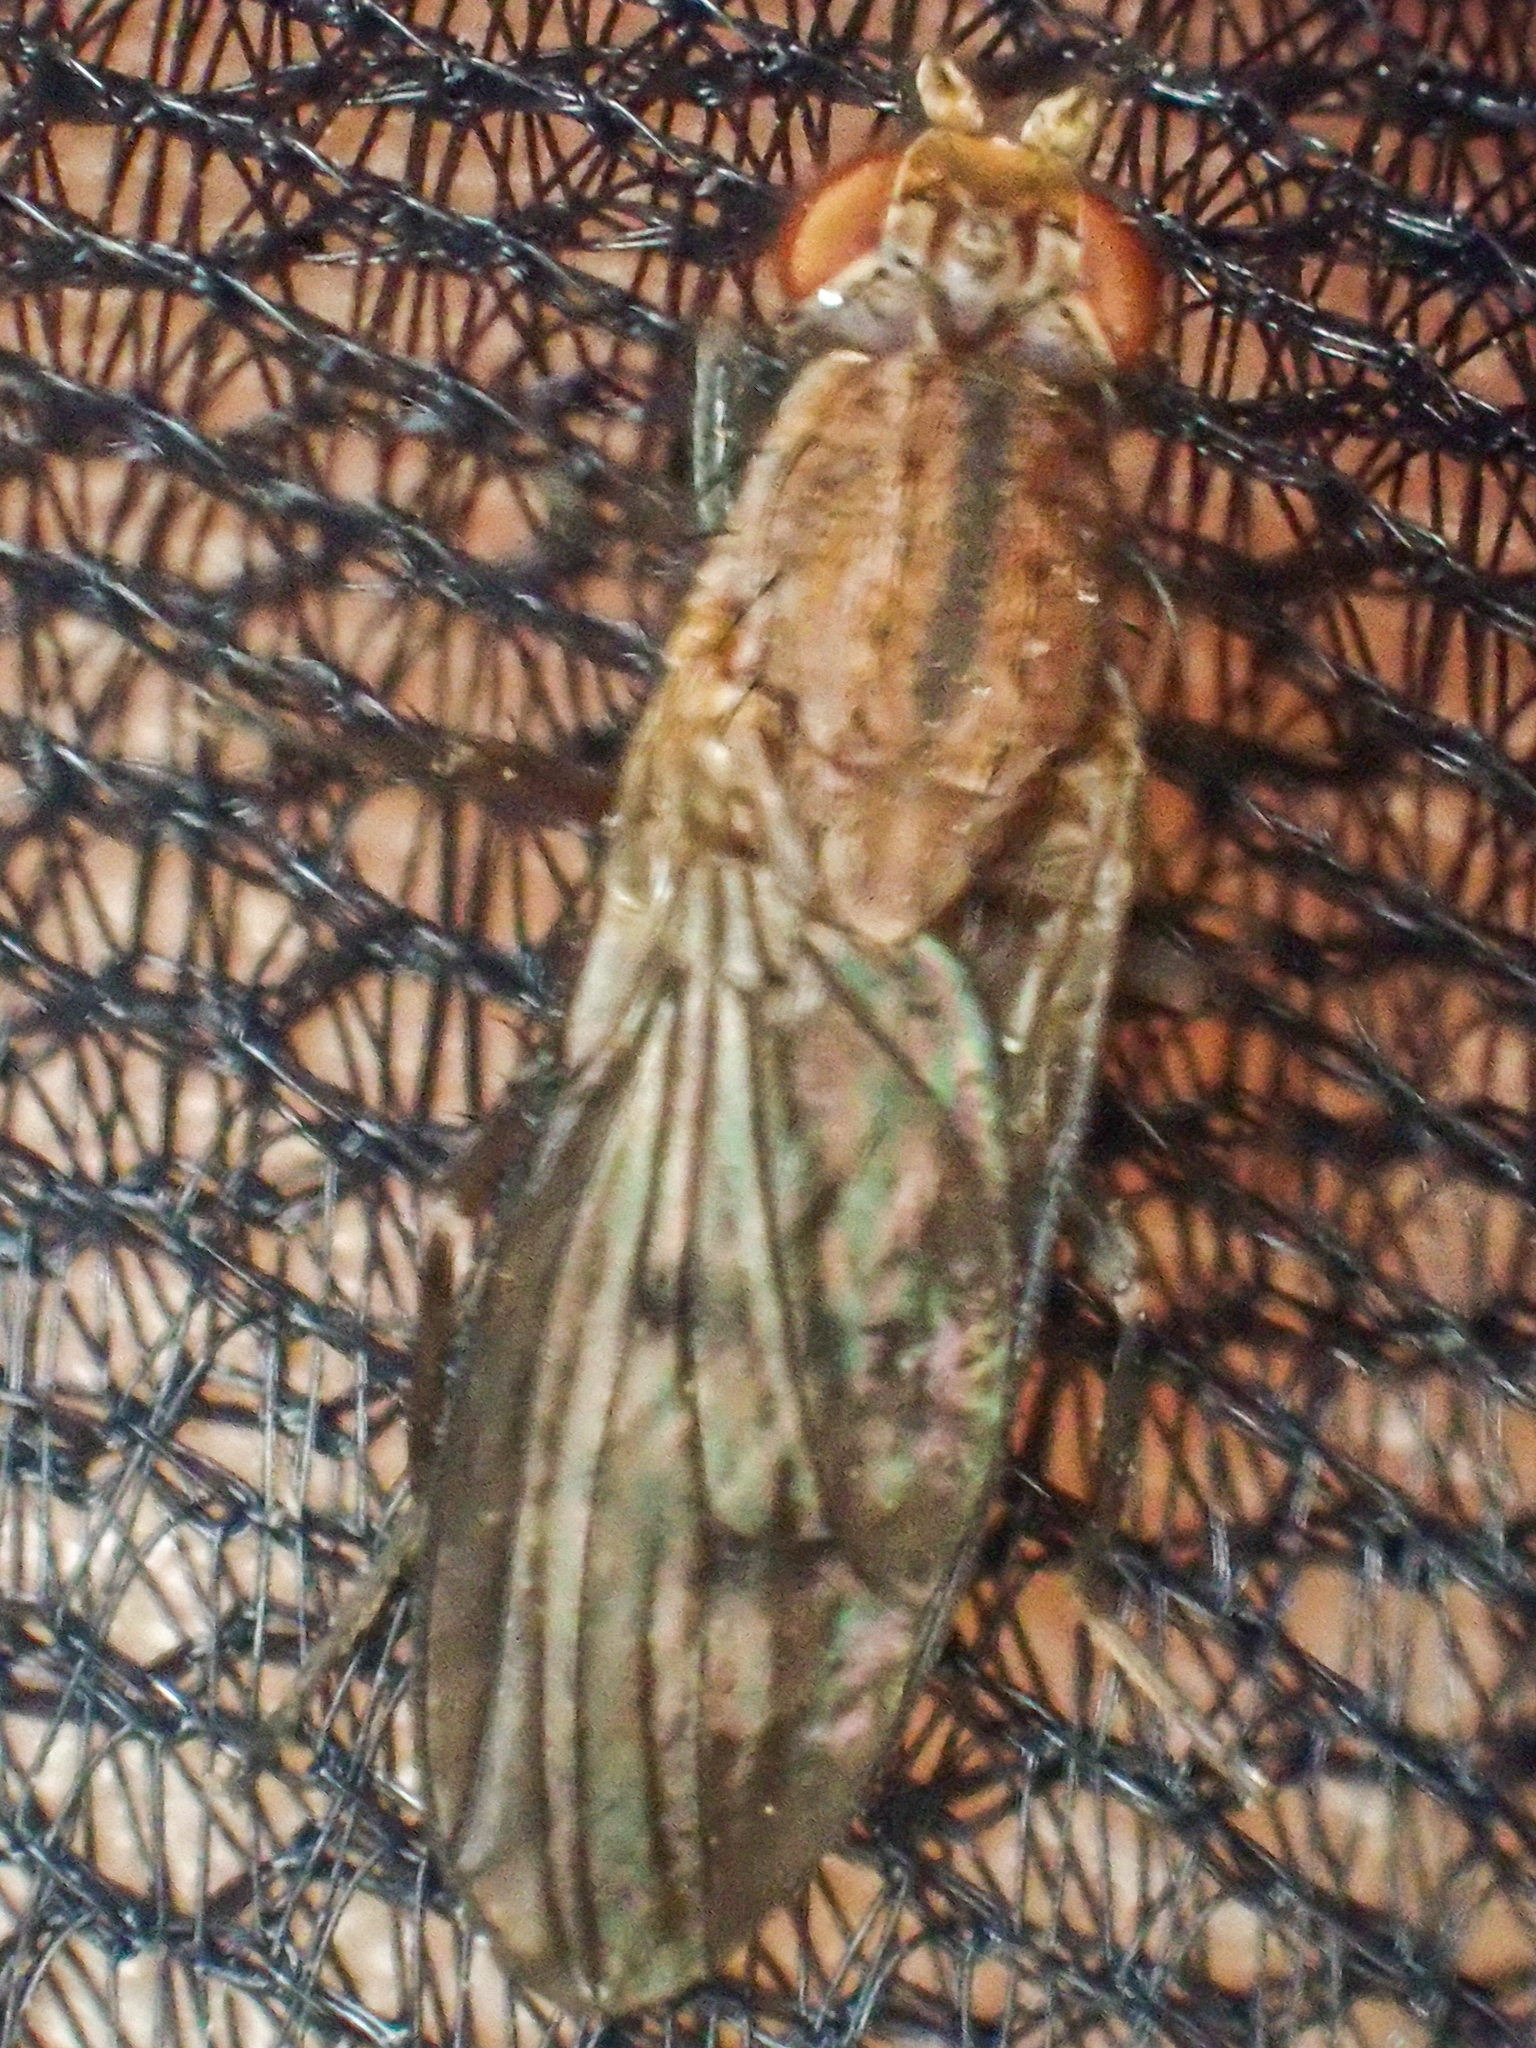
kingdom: Animalia
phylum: Arthropoda
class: Insecta
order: Diptera
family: Heleomyzidae
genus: Suillia
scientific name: Suillia barberi
